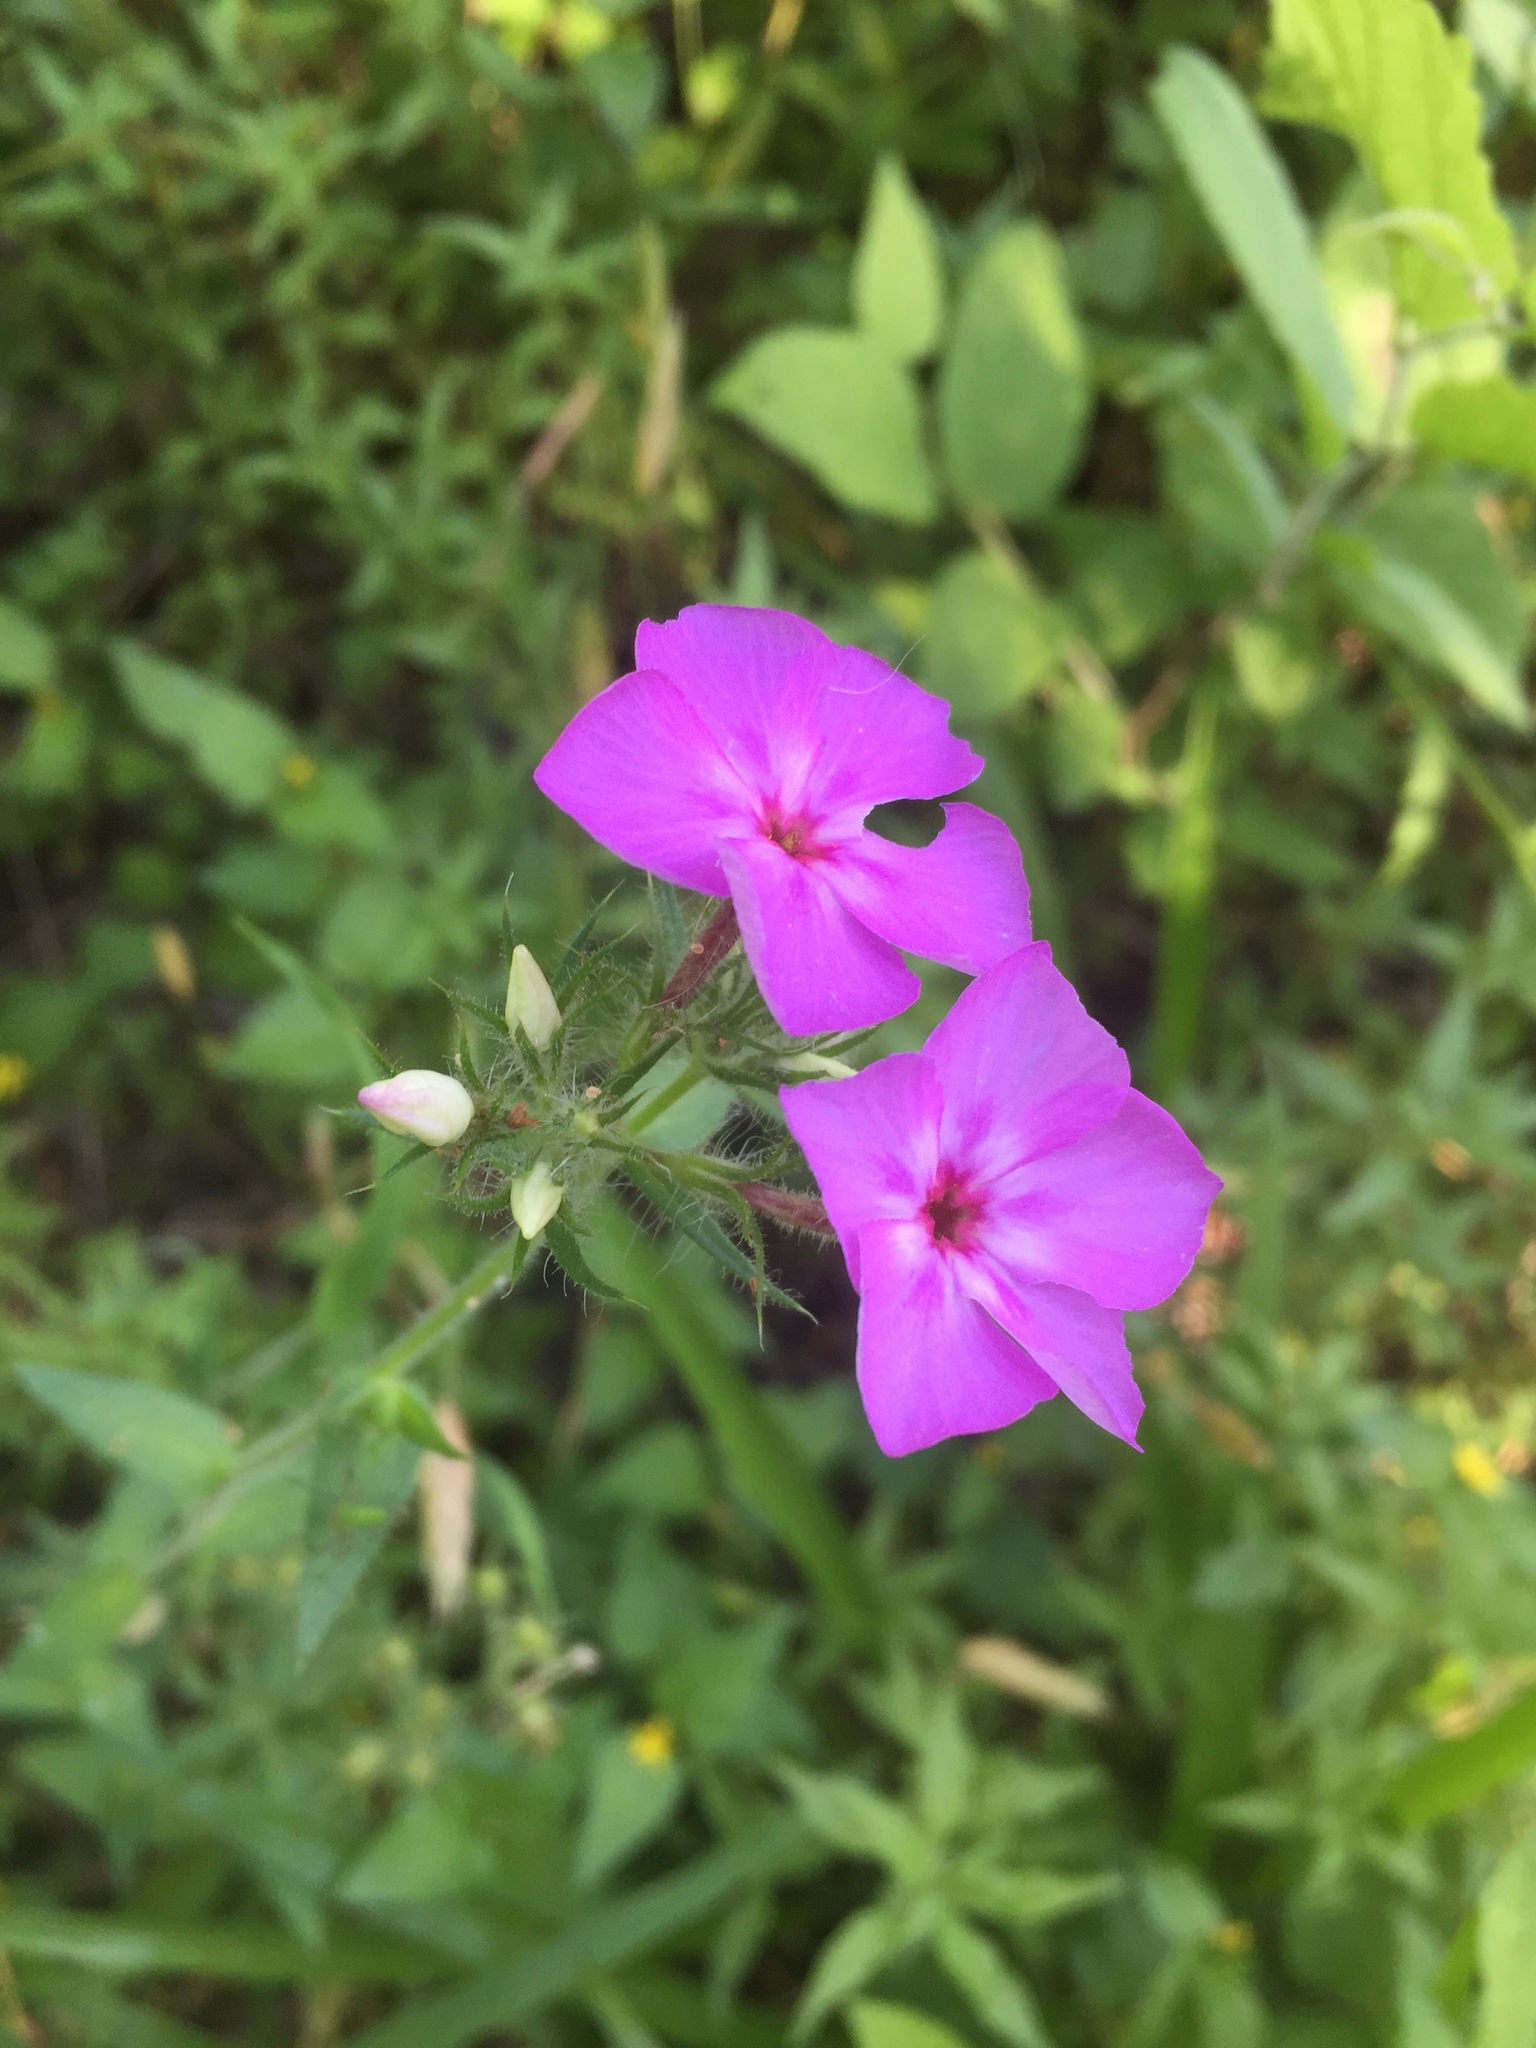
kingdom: Plantae
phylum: Tracheophyta
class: Magnoliopsida
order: Ericales
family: Polemoniaceae
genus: Phlox
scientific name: Phlox drummondii
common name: Drummond's phlox
